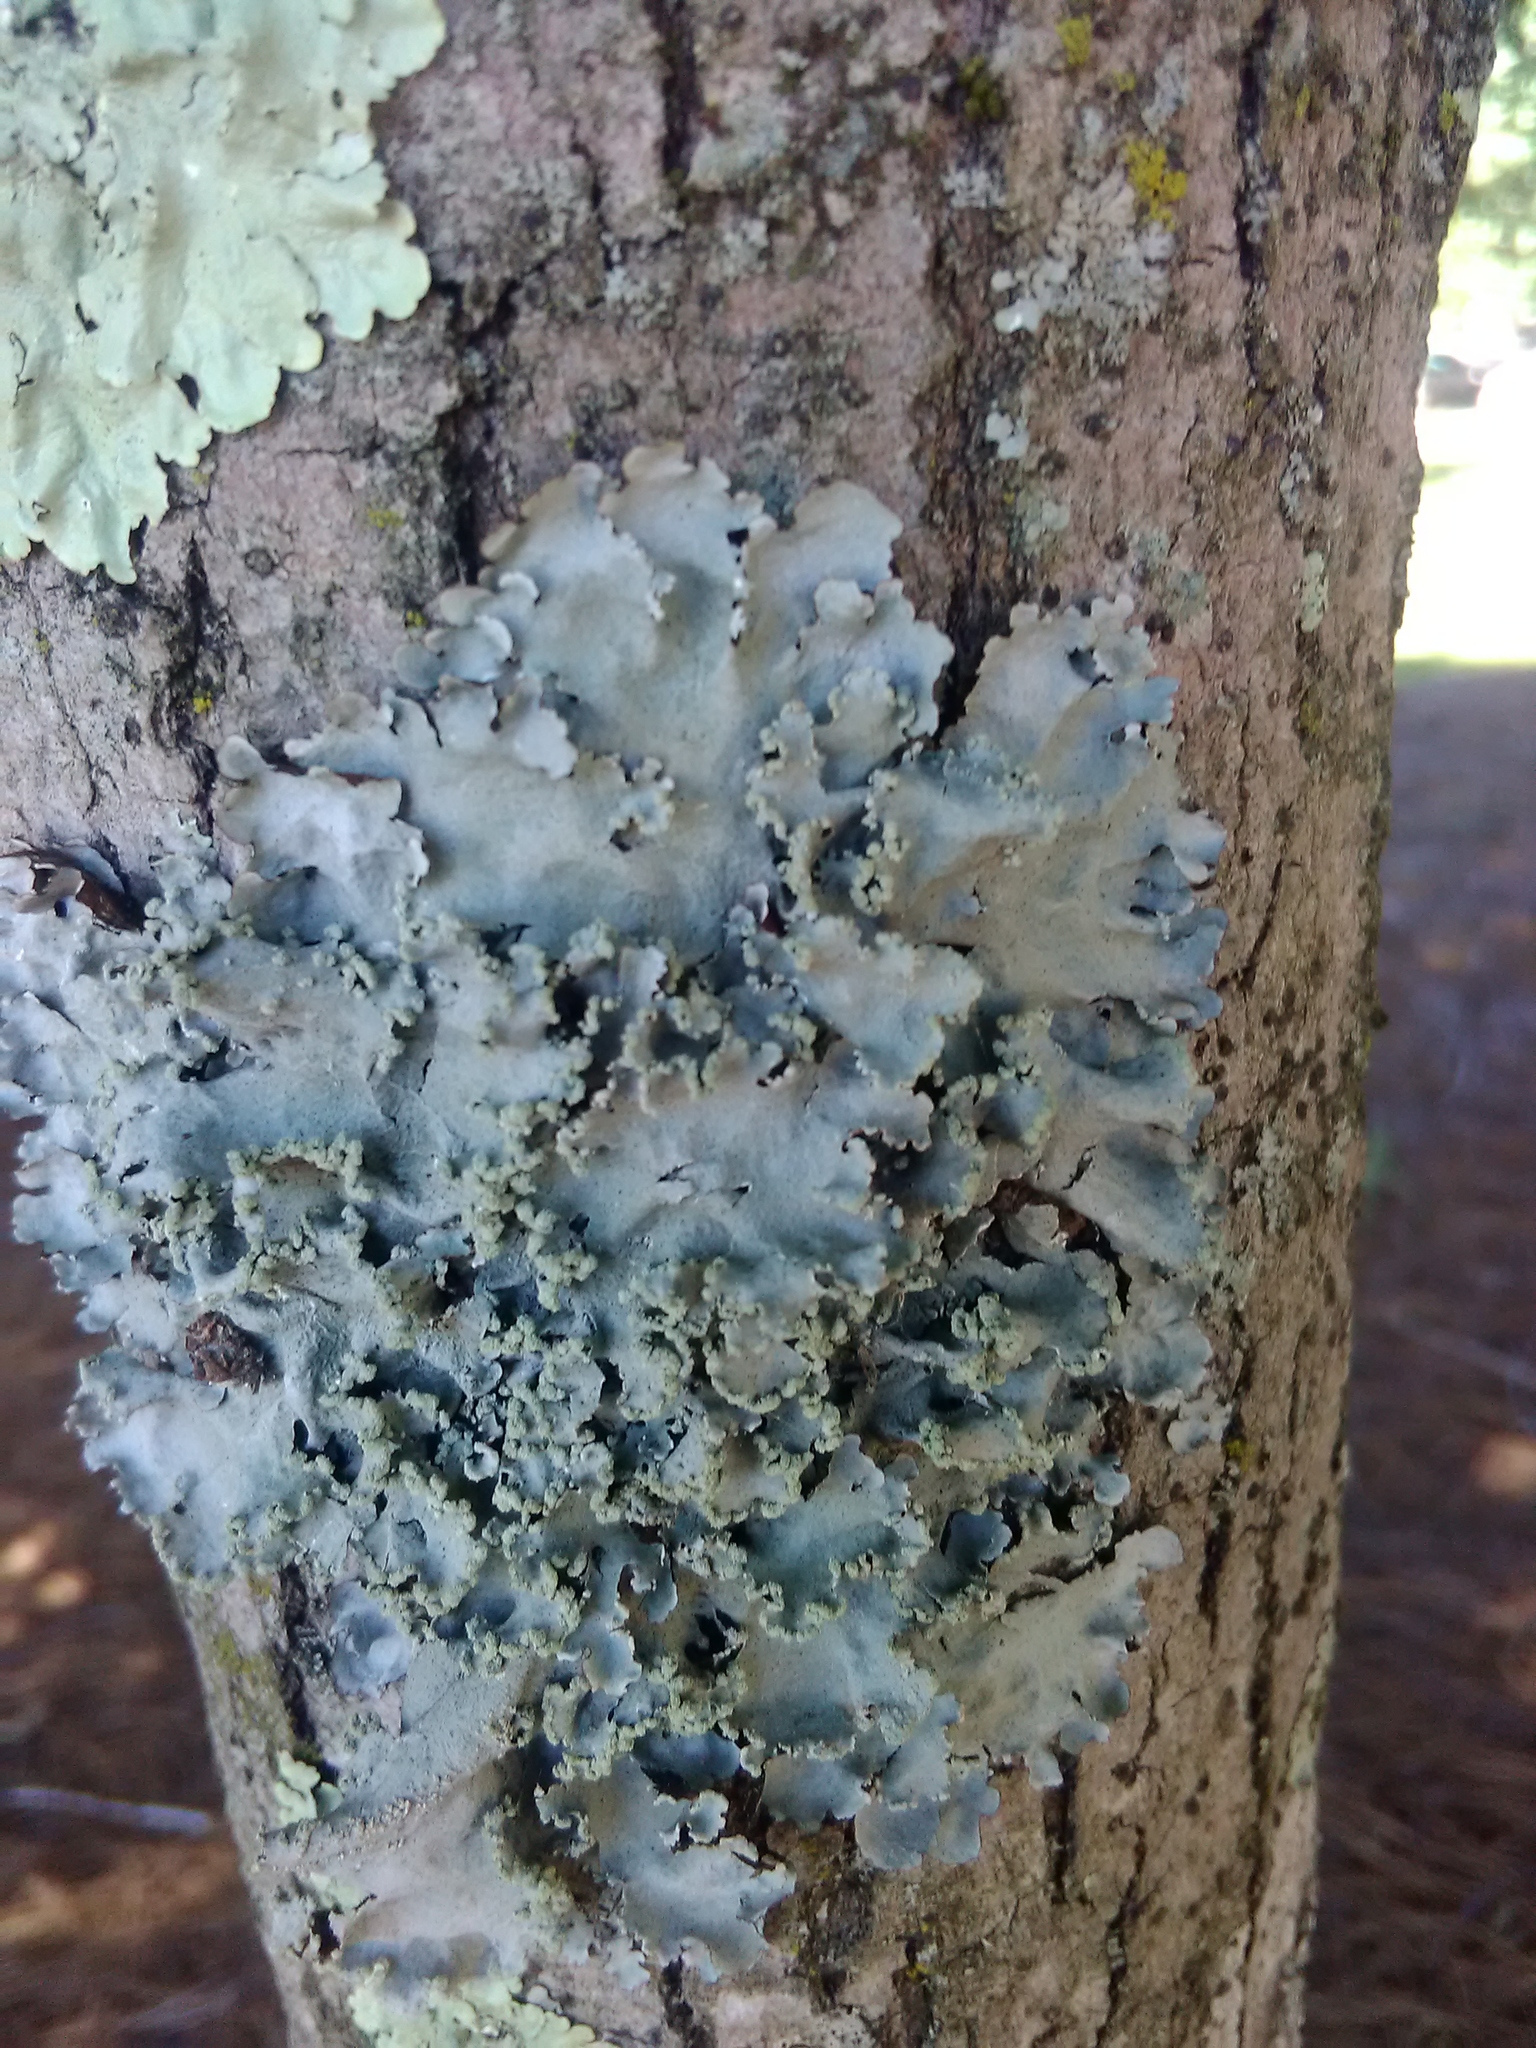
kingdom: Fungi
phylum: Ascomycota
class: Lecanoromycetes
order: Lecanorales
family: Parmeliaceae
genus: Parmotrema
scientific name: Parmotrema reticulatum
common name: Black sheet lichen
